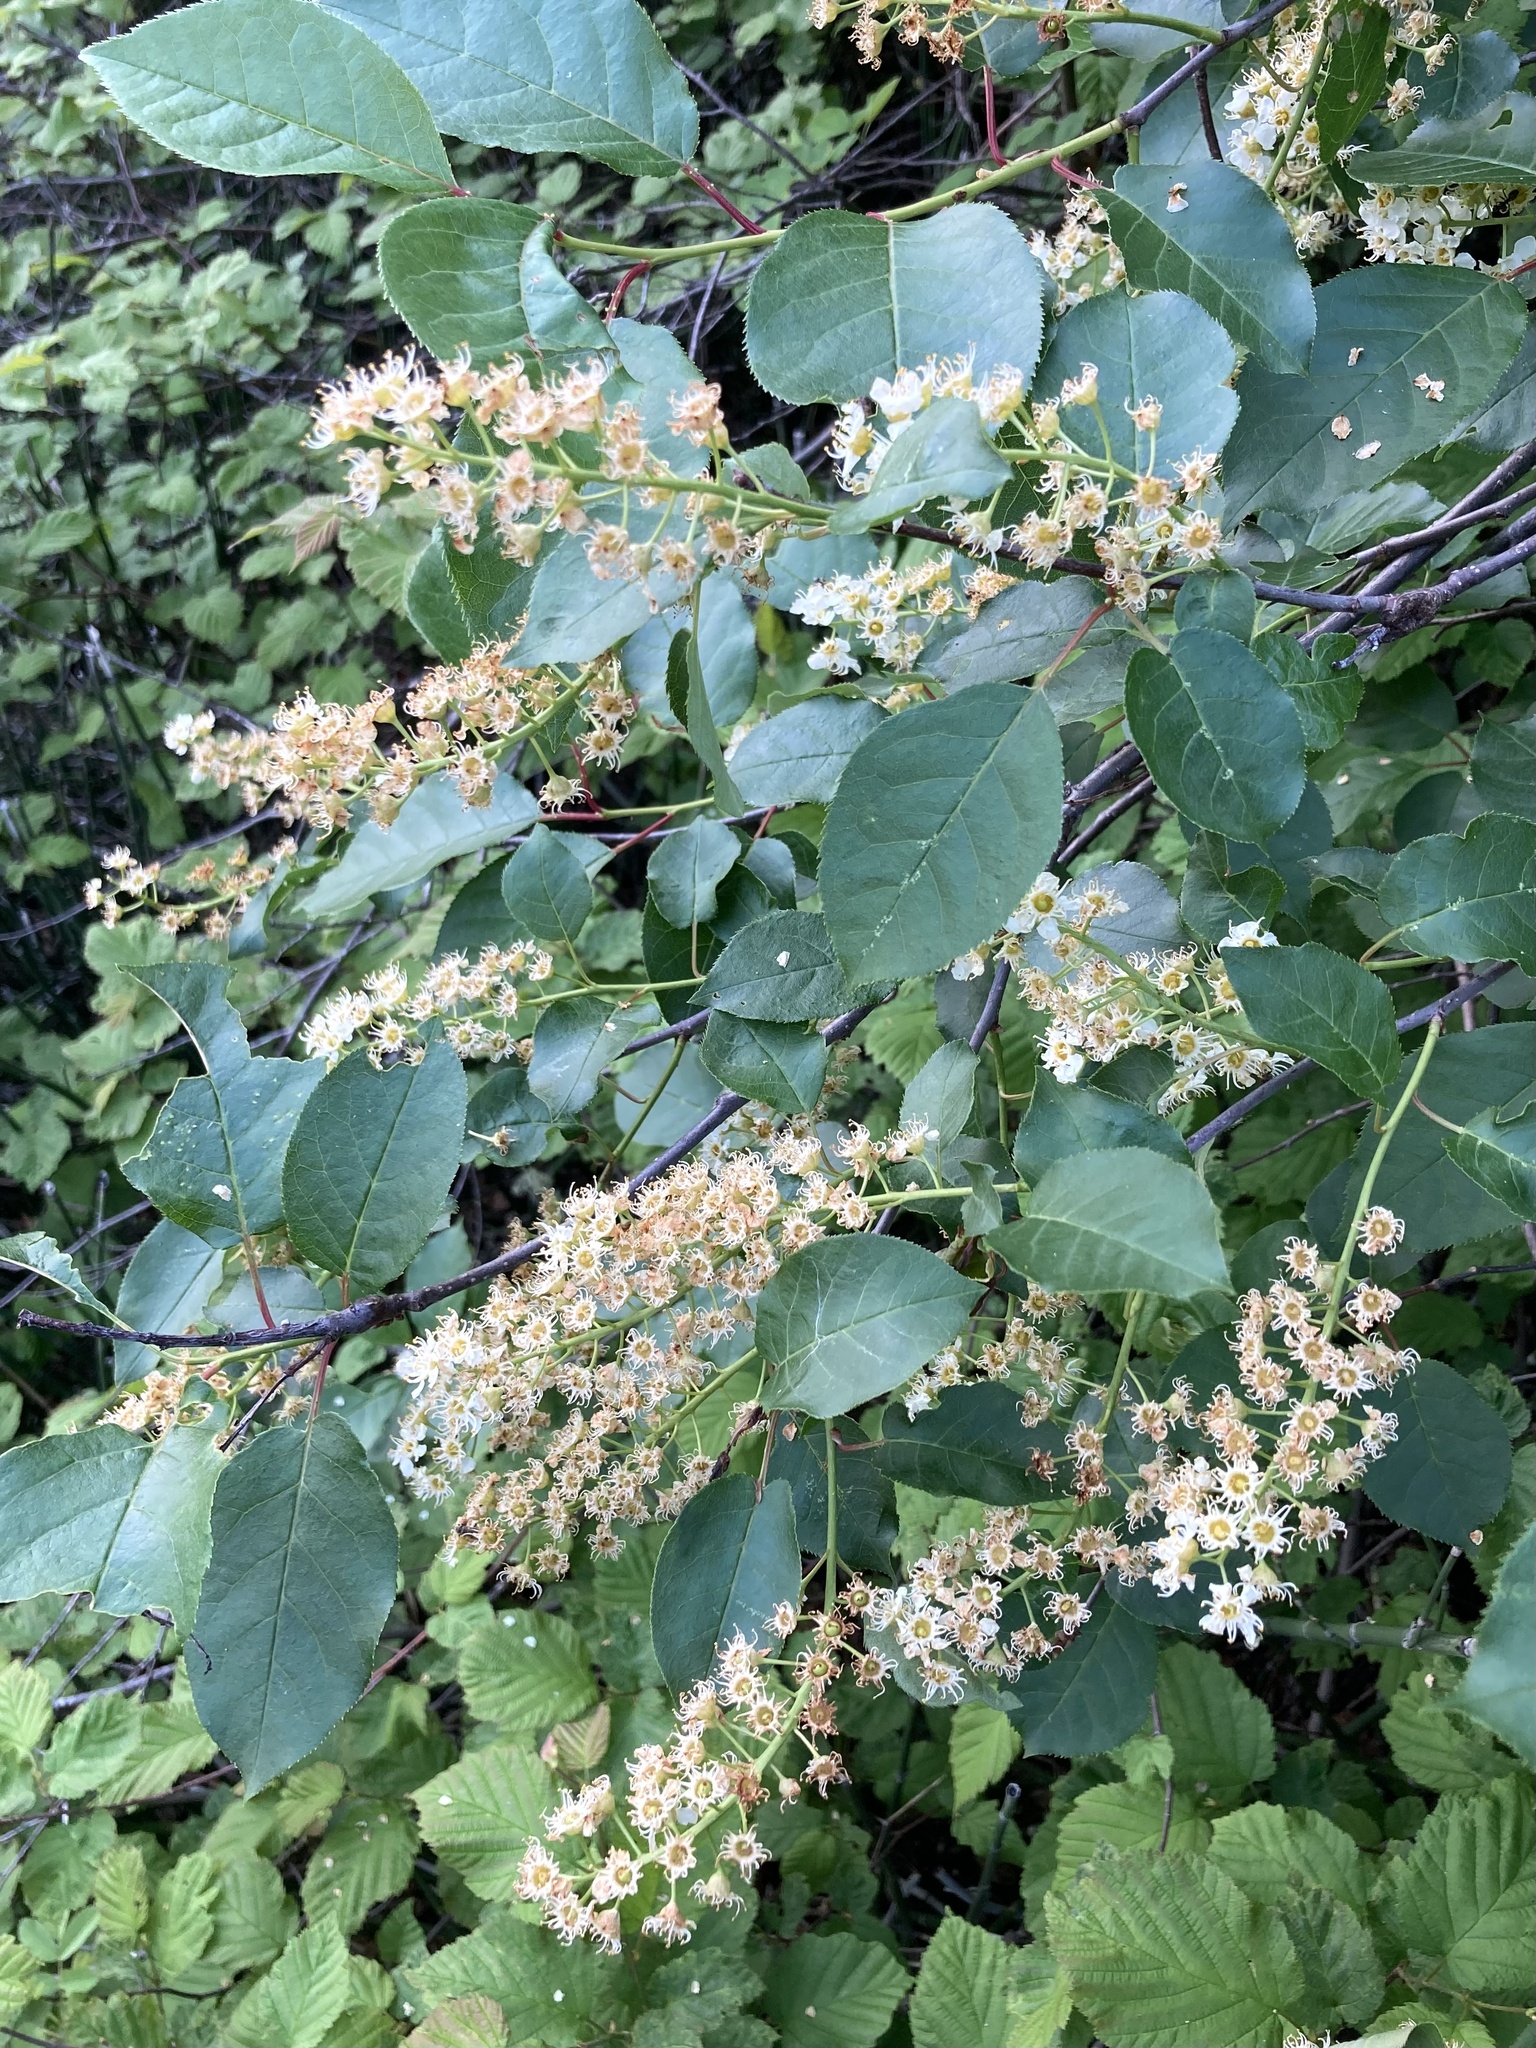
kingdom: Plantae
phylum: Tracheophyta
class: Magnoliopsida
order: Rosales
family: Rosaceae
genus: Prunus
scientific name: Prunus virginiana
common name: Chokecherry
